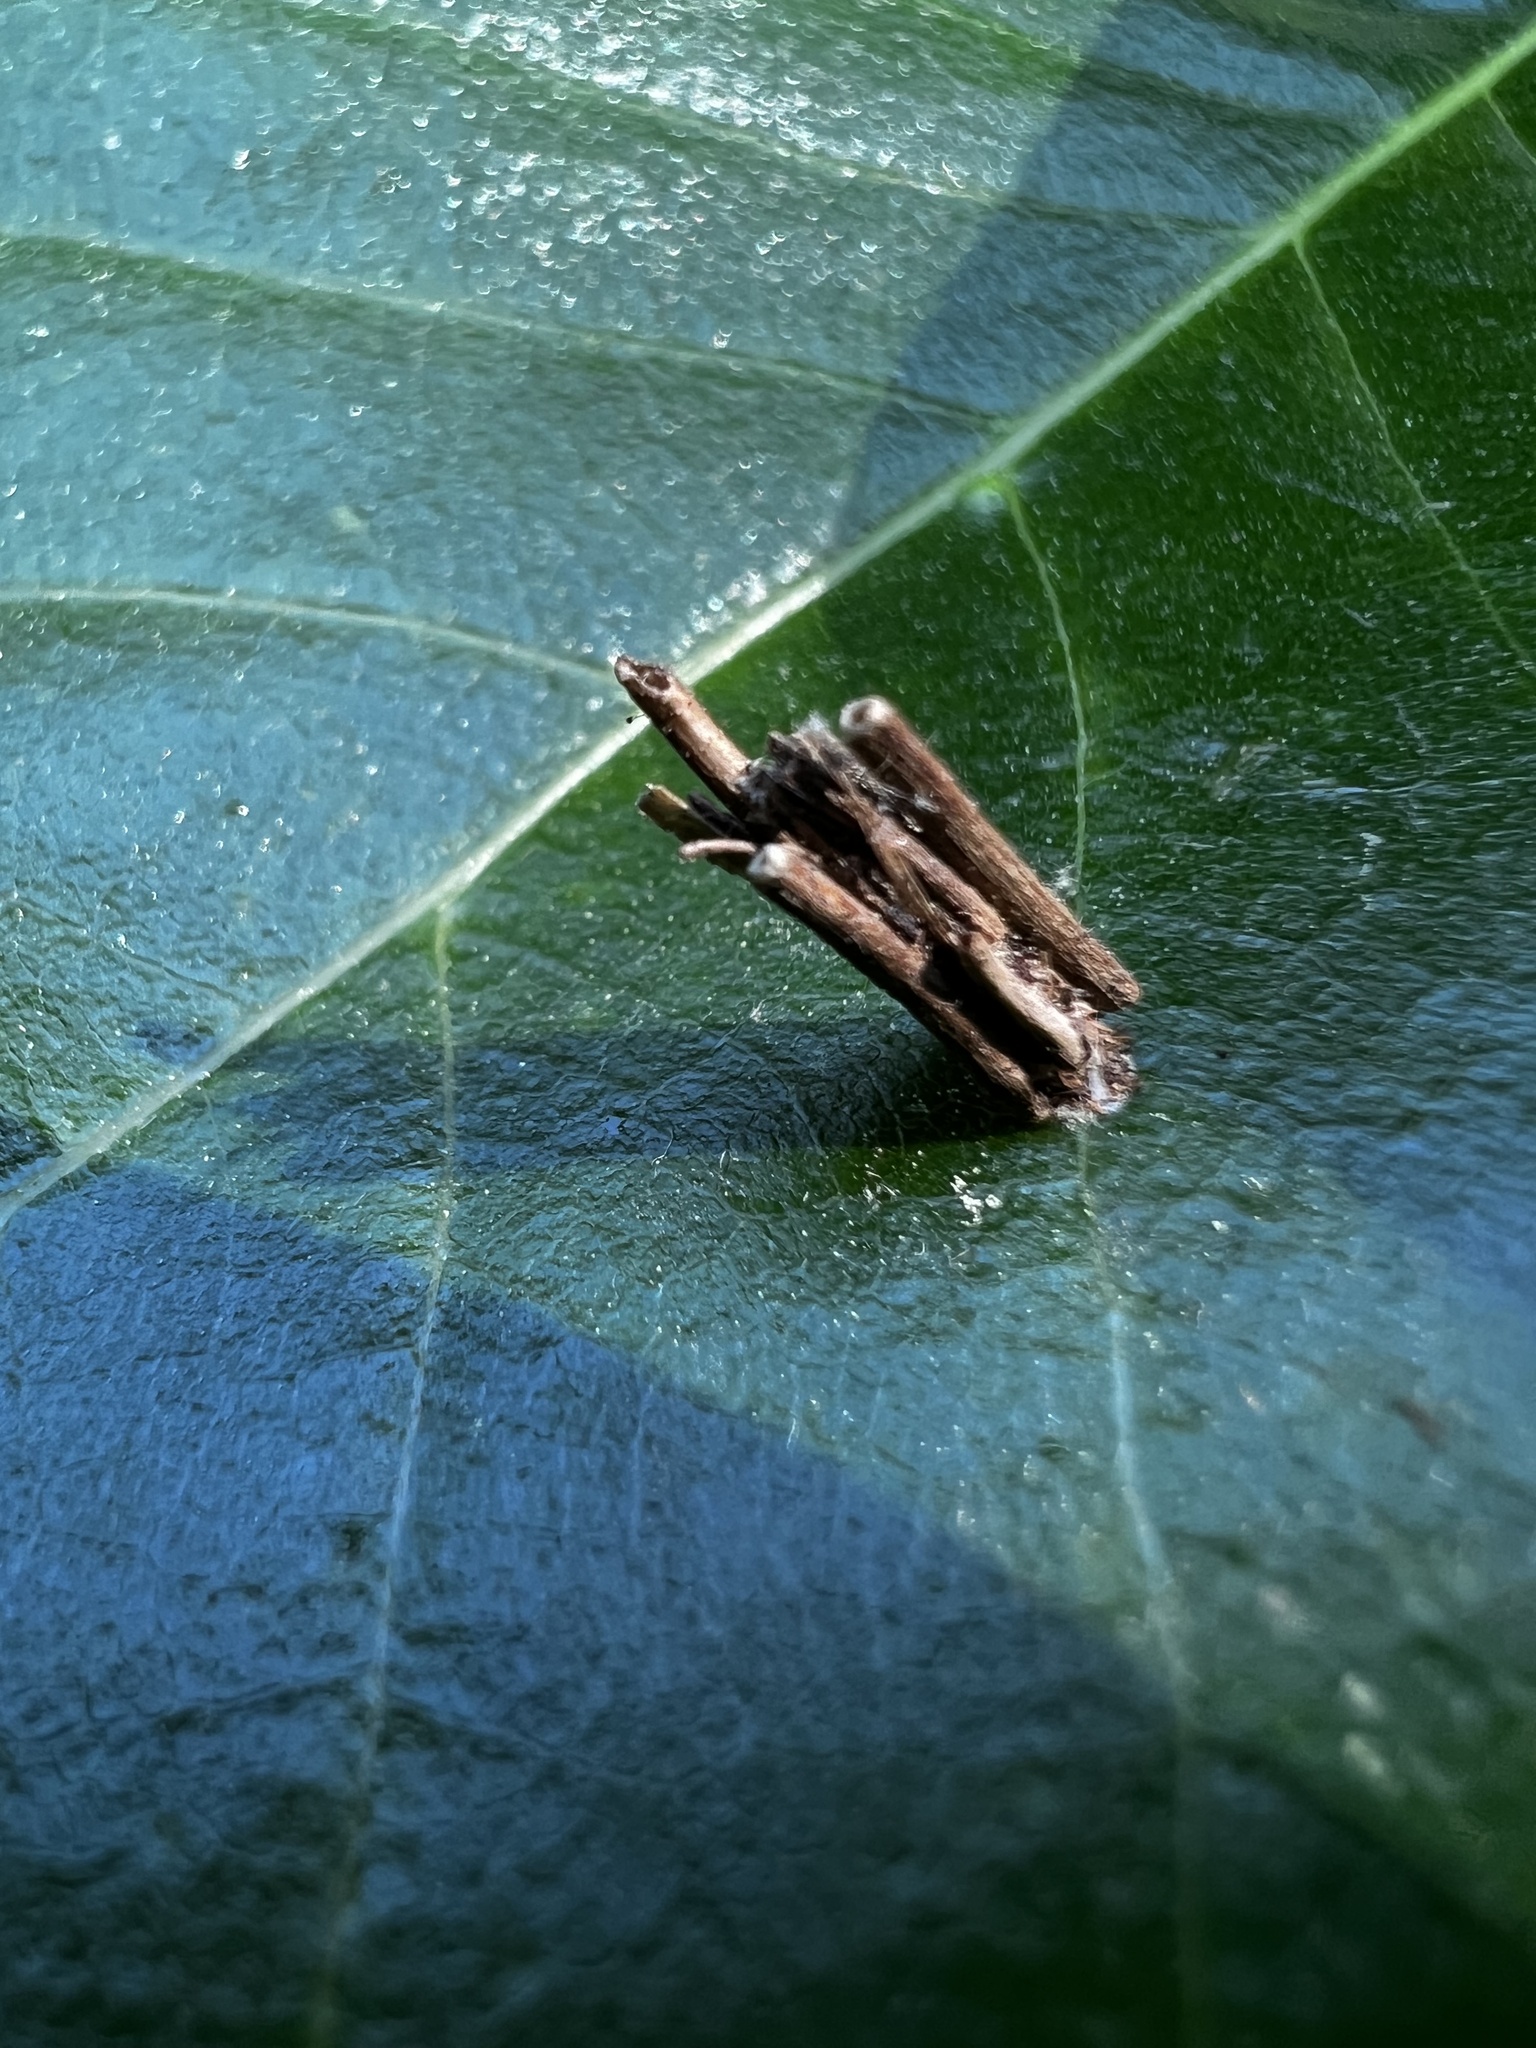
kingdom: Animalia
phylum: Arthropoda
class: Insecta
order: Lepidoptera
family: Psychidae
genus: Psyche
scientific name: Psyche casta
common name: Common sweep
